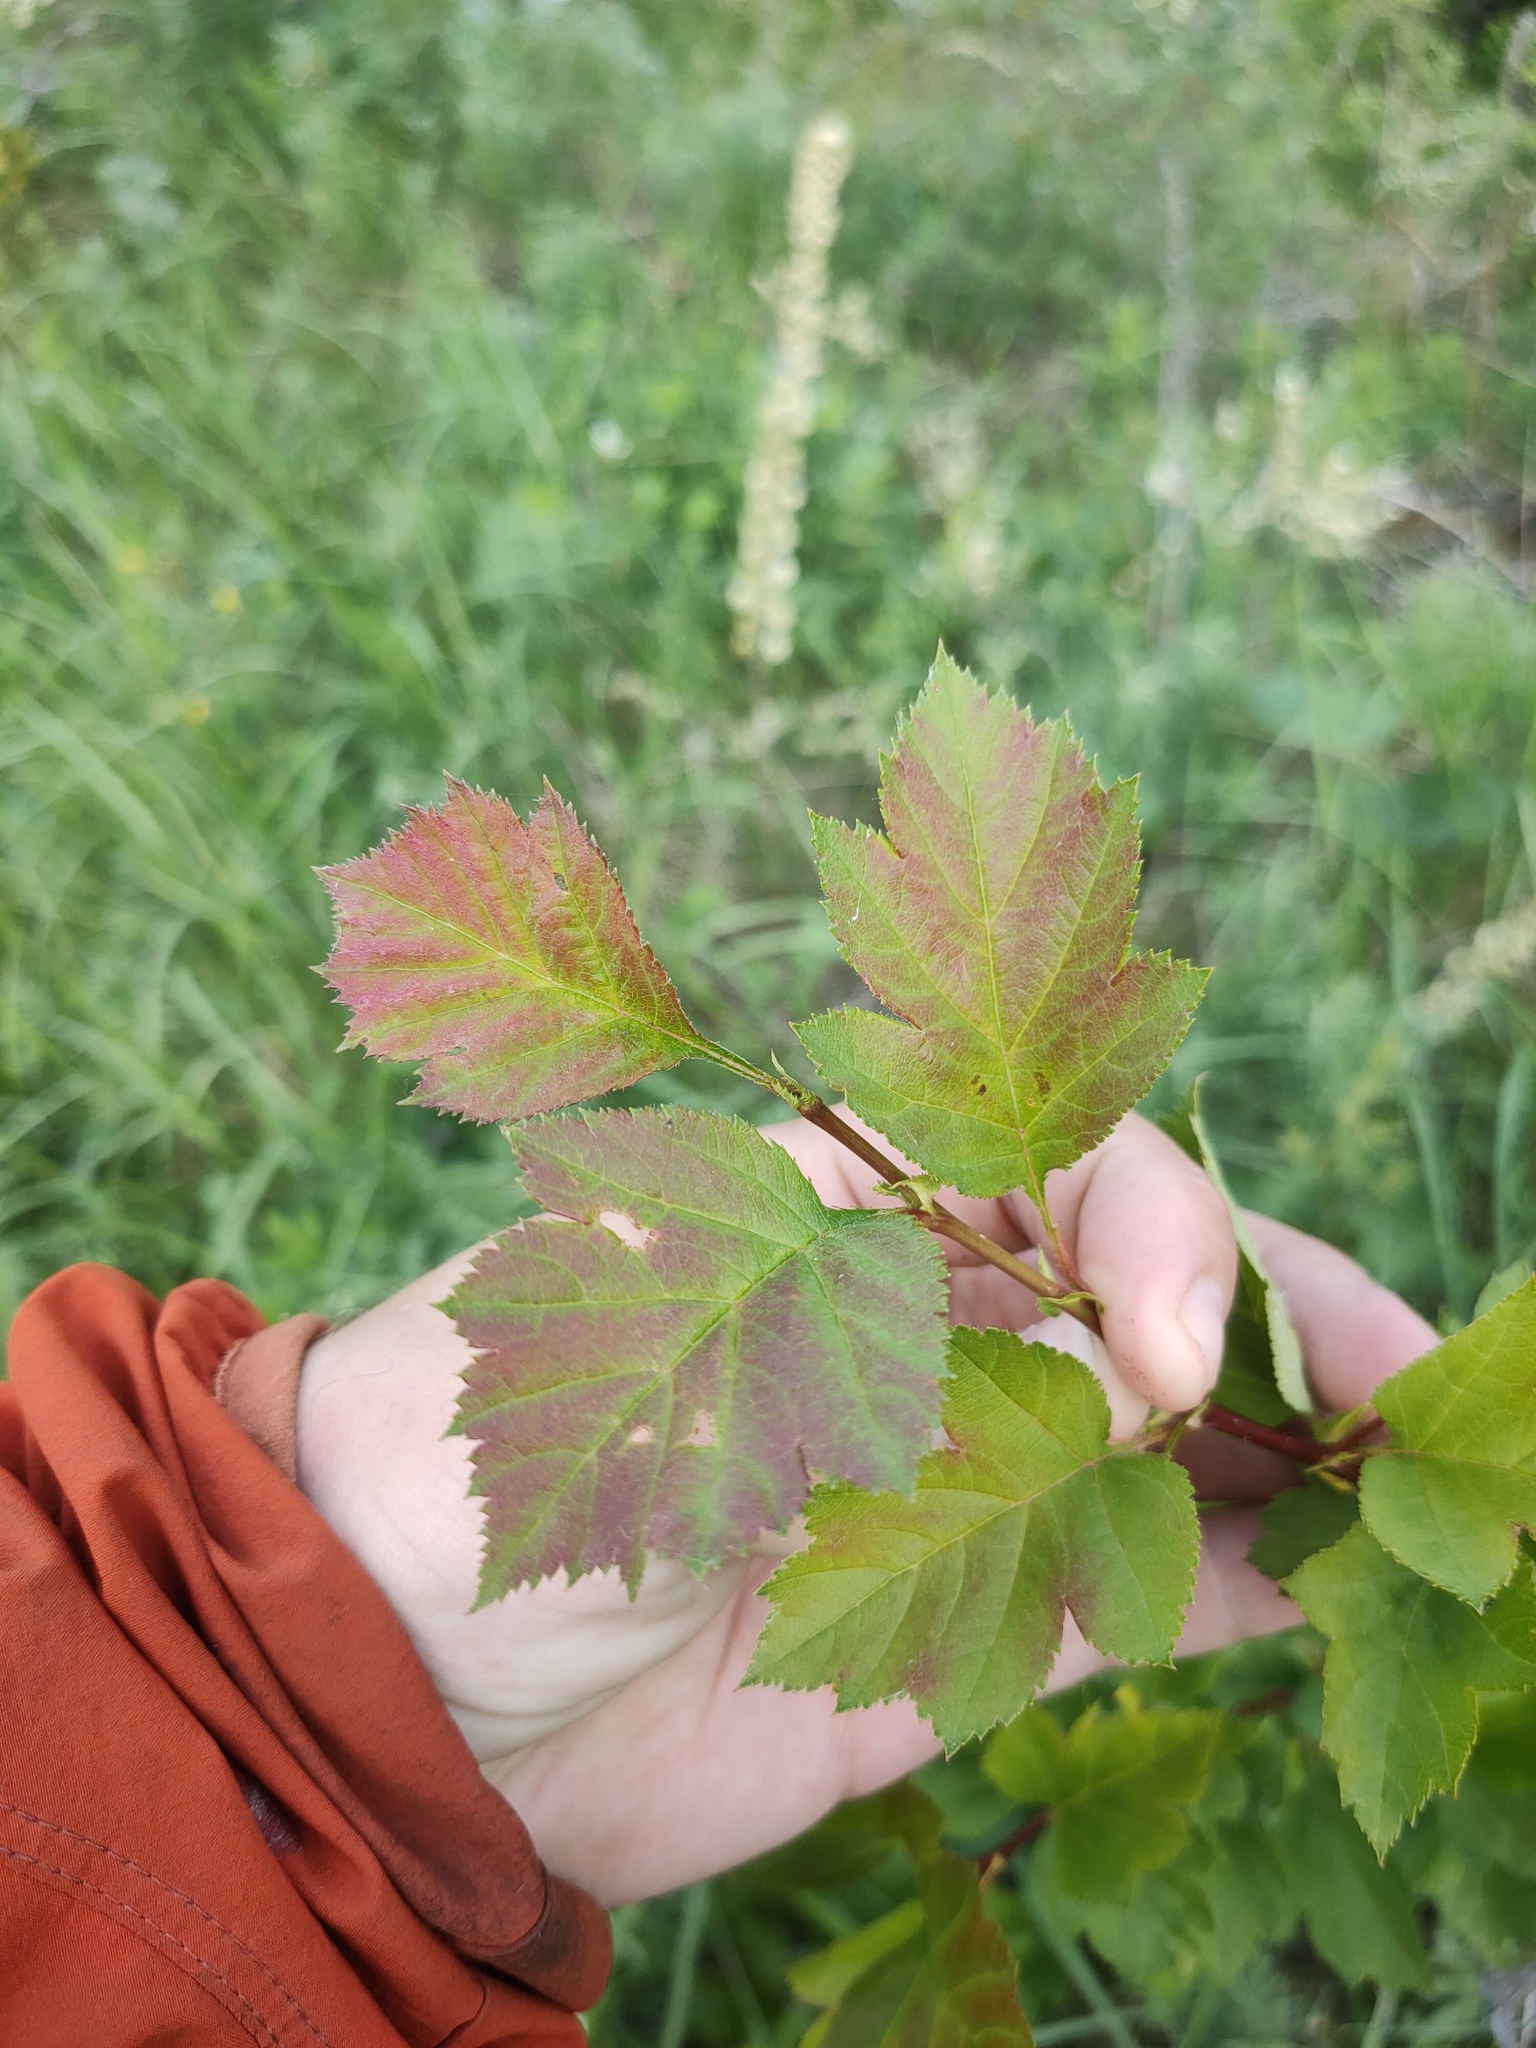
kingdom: Plantae
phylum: Tracheophyta
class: Magnoliopsida
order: Rosales
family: Rosaceae
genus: Crataegus
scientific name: Crataegus sanguinea
